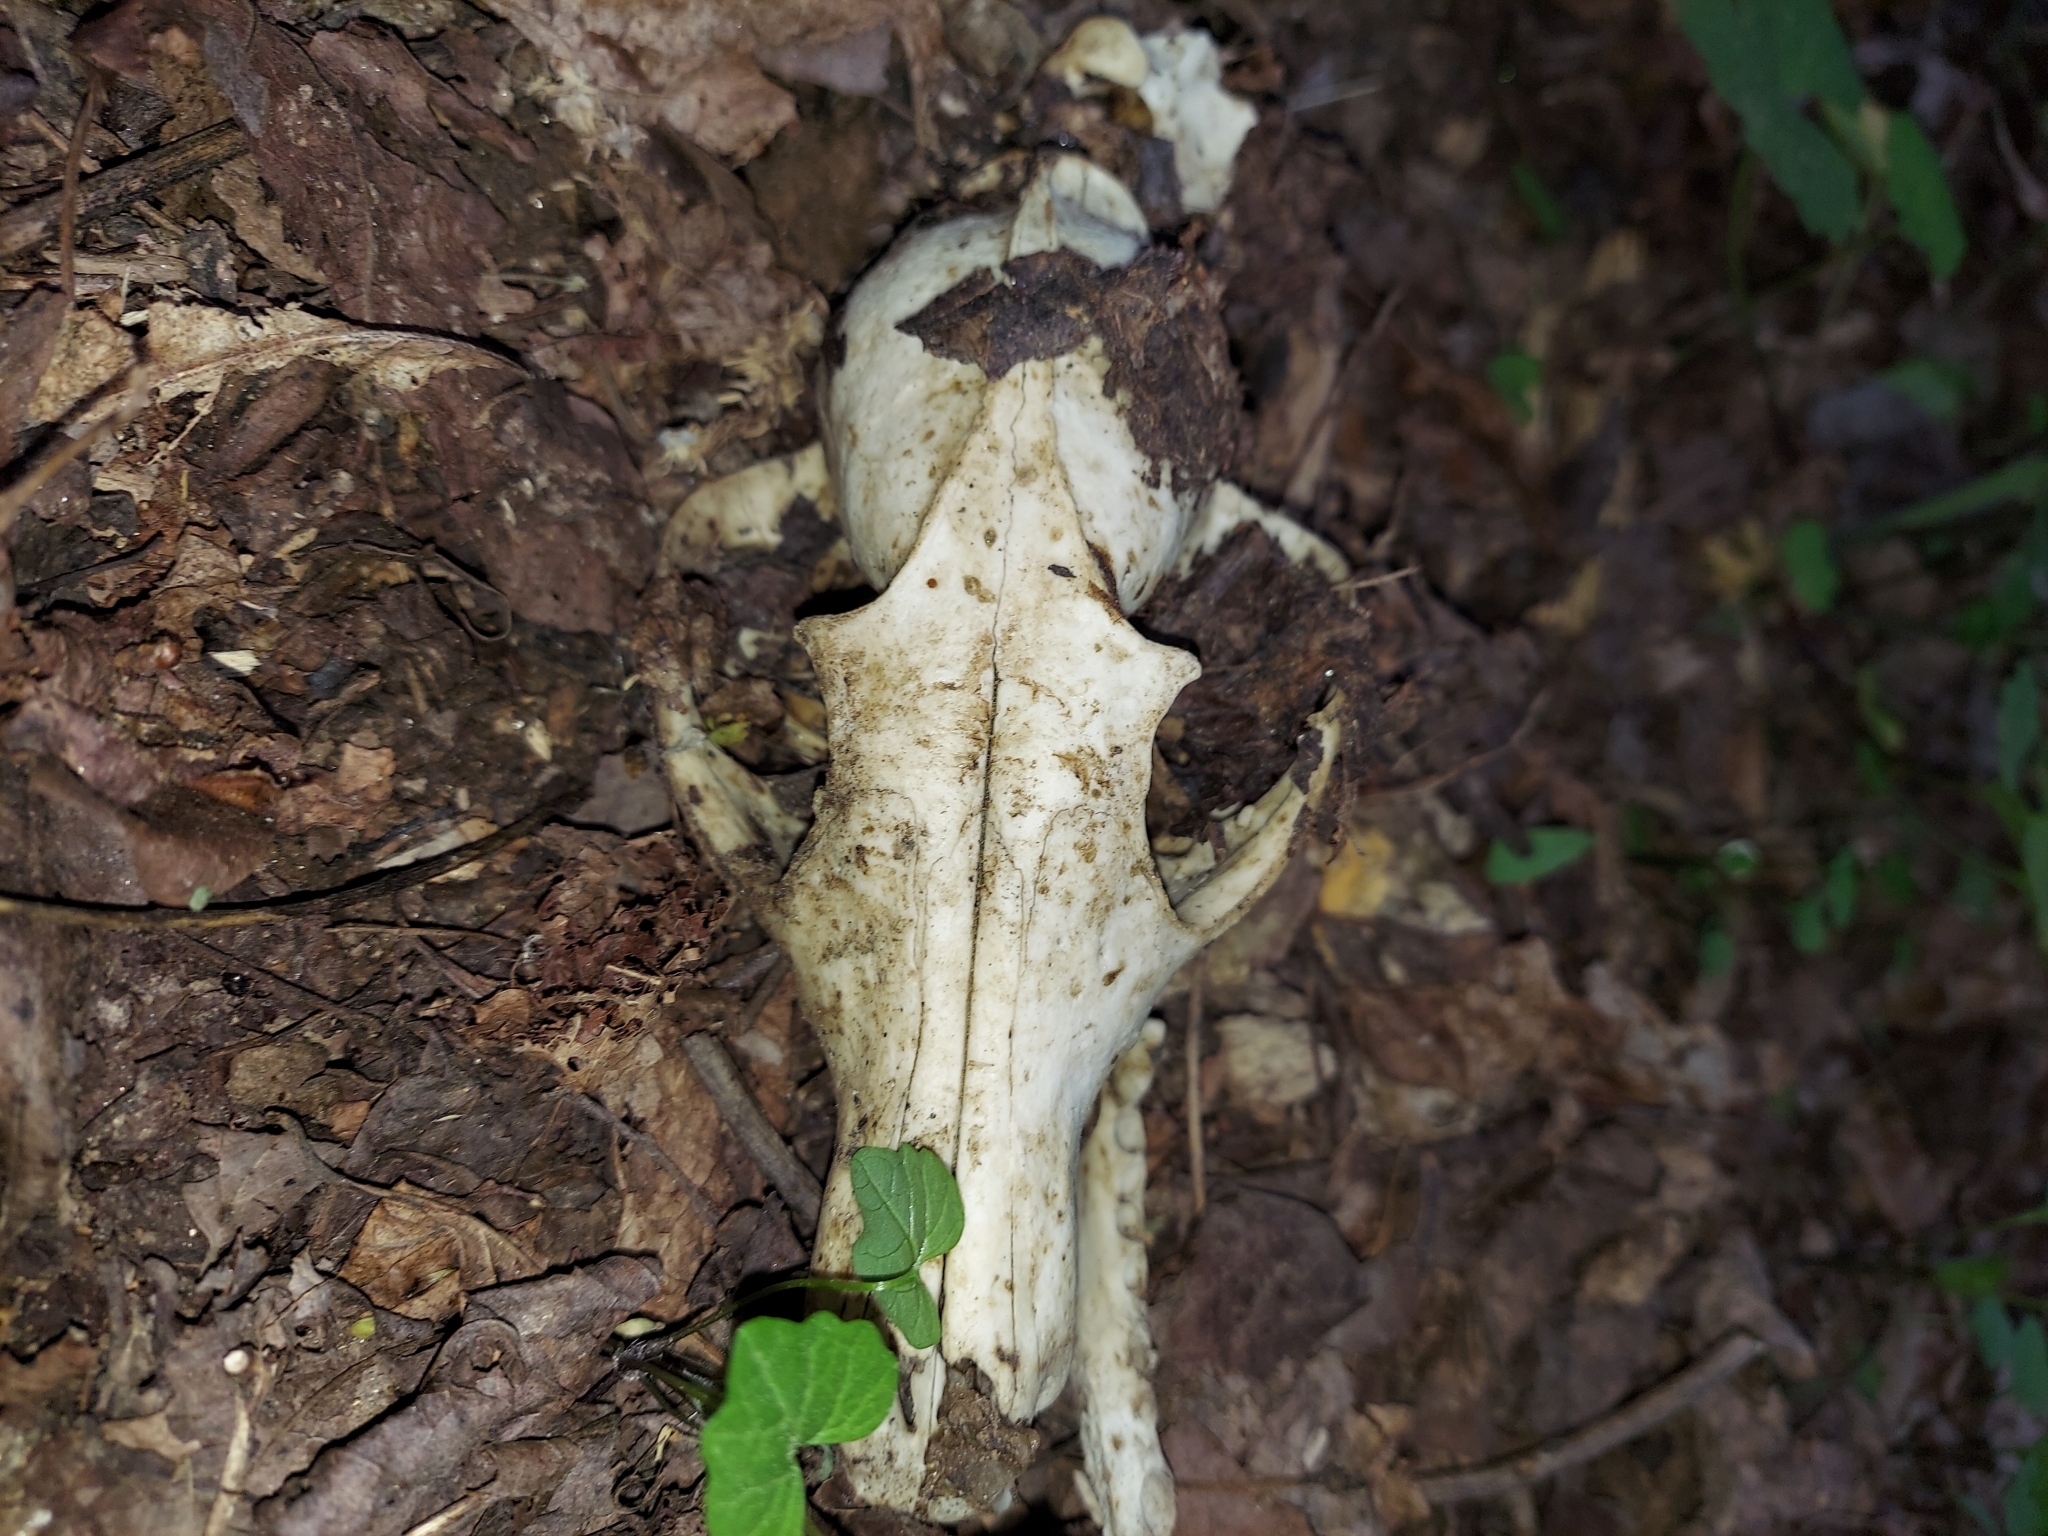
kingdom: Animalia
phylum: Chordata
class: Mammalia
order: Carnivora
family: Canidae
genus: Vulpes
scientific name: Vulpes vulpes
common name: Red fox
